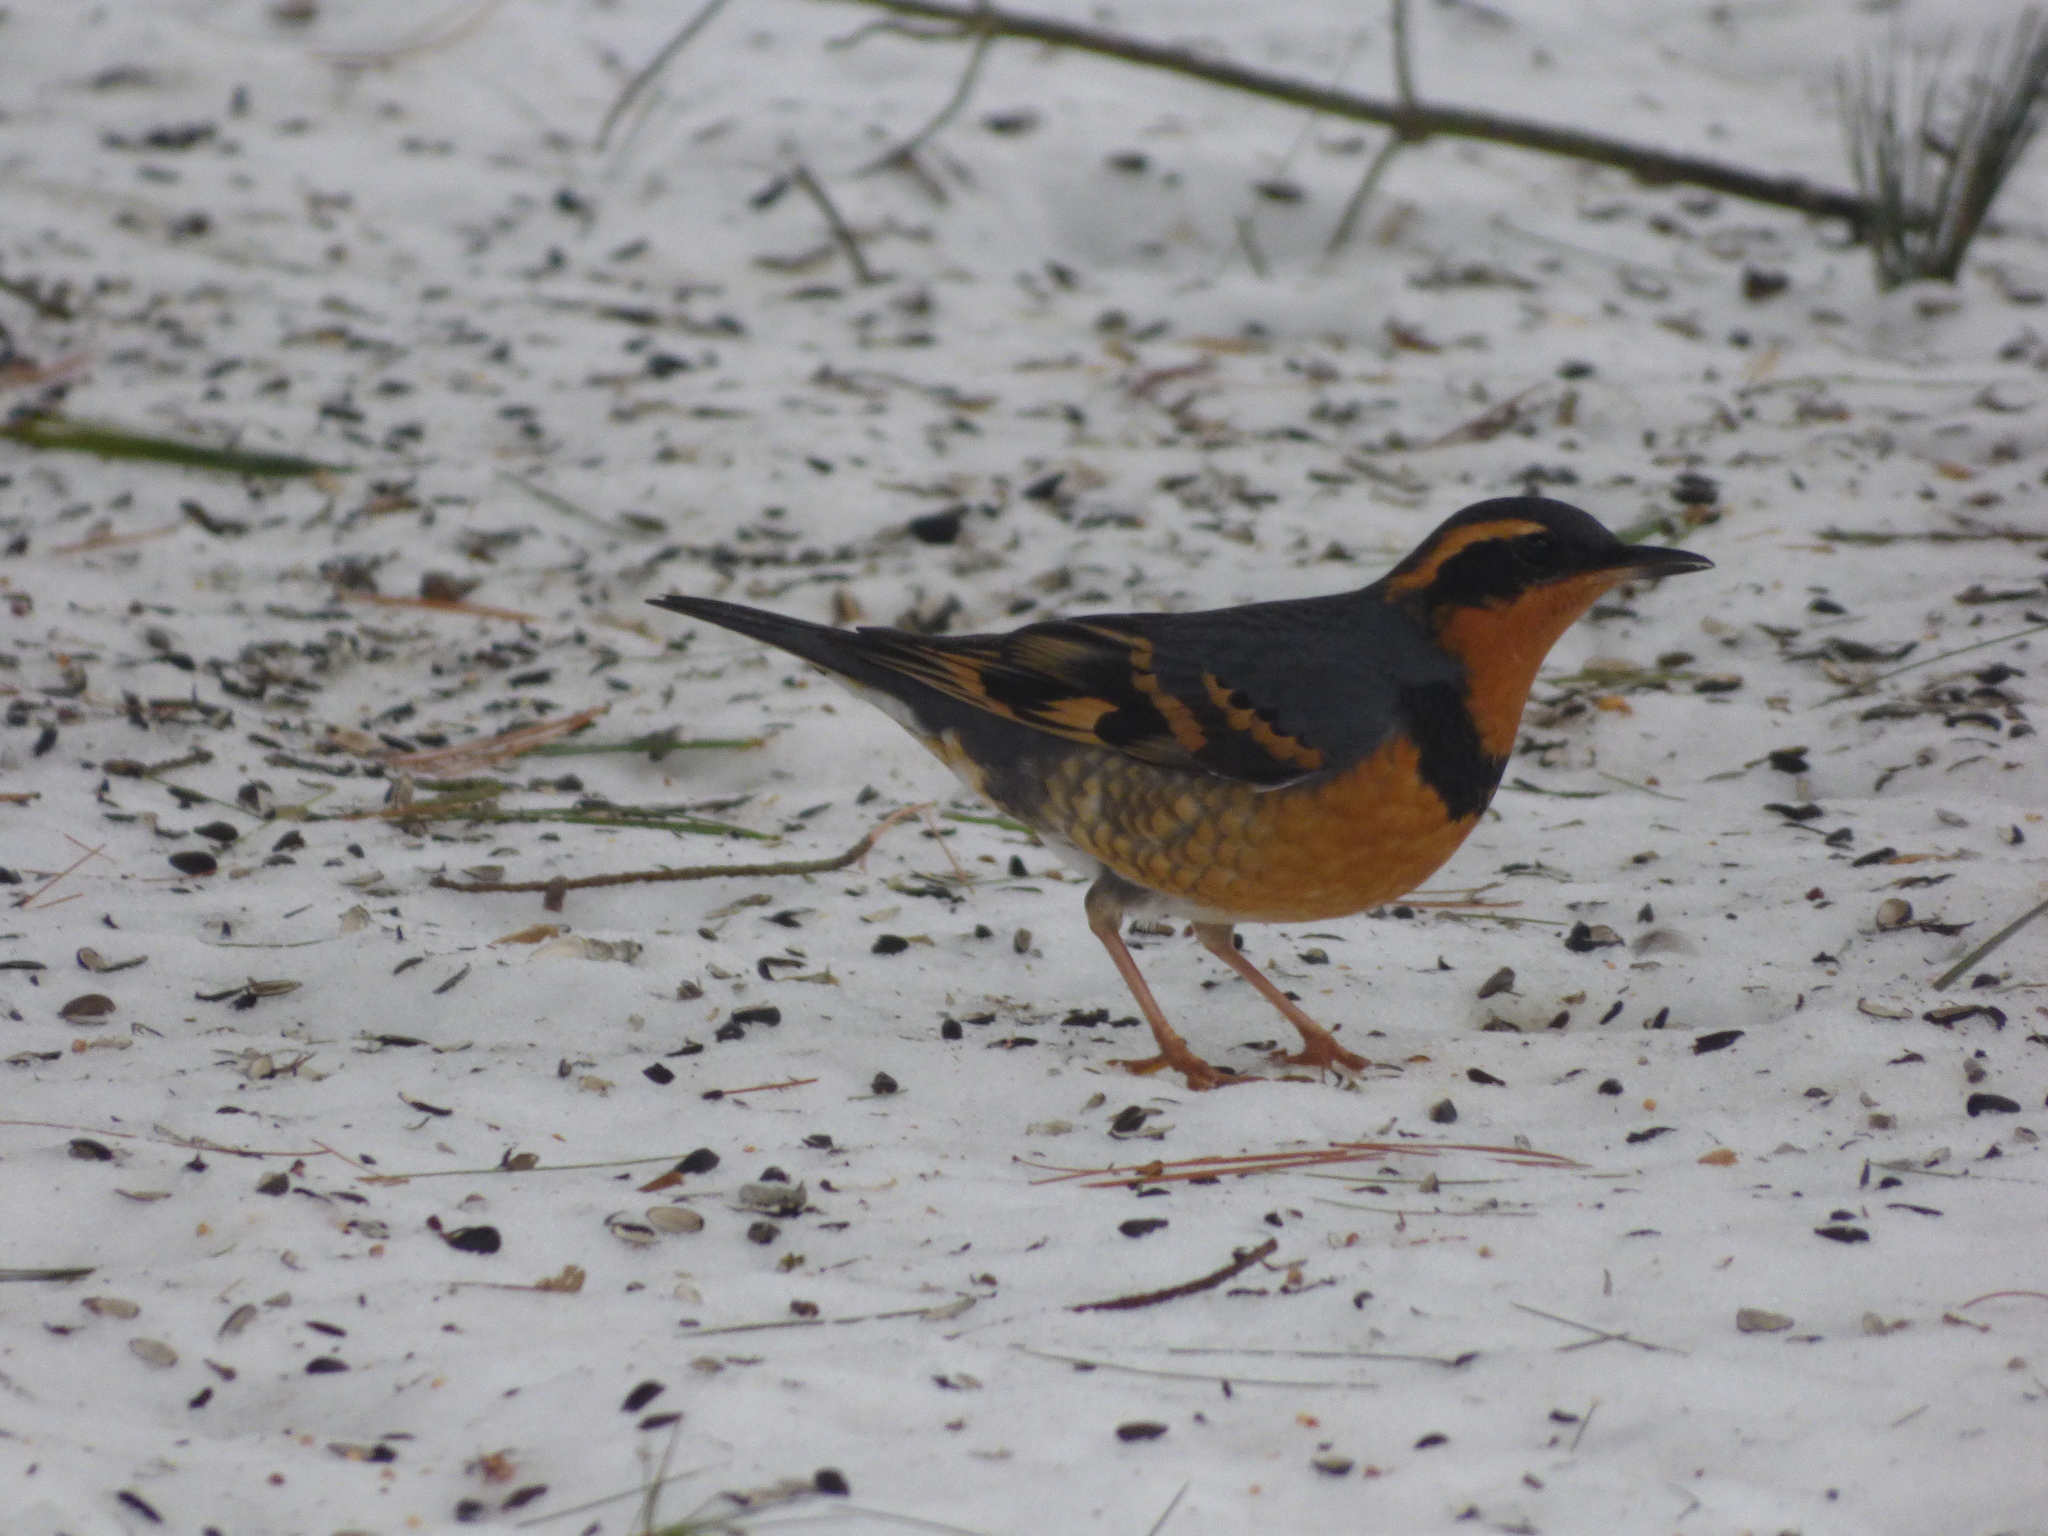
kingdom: Animalia
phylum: Chordata
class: Aves
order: Passeriformes
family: Turdidae
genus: Ixoreus
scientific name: Ixoreus naevius
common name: Varied thrush
